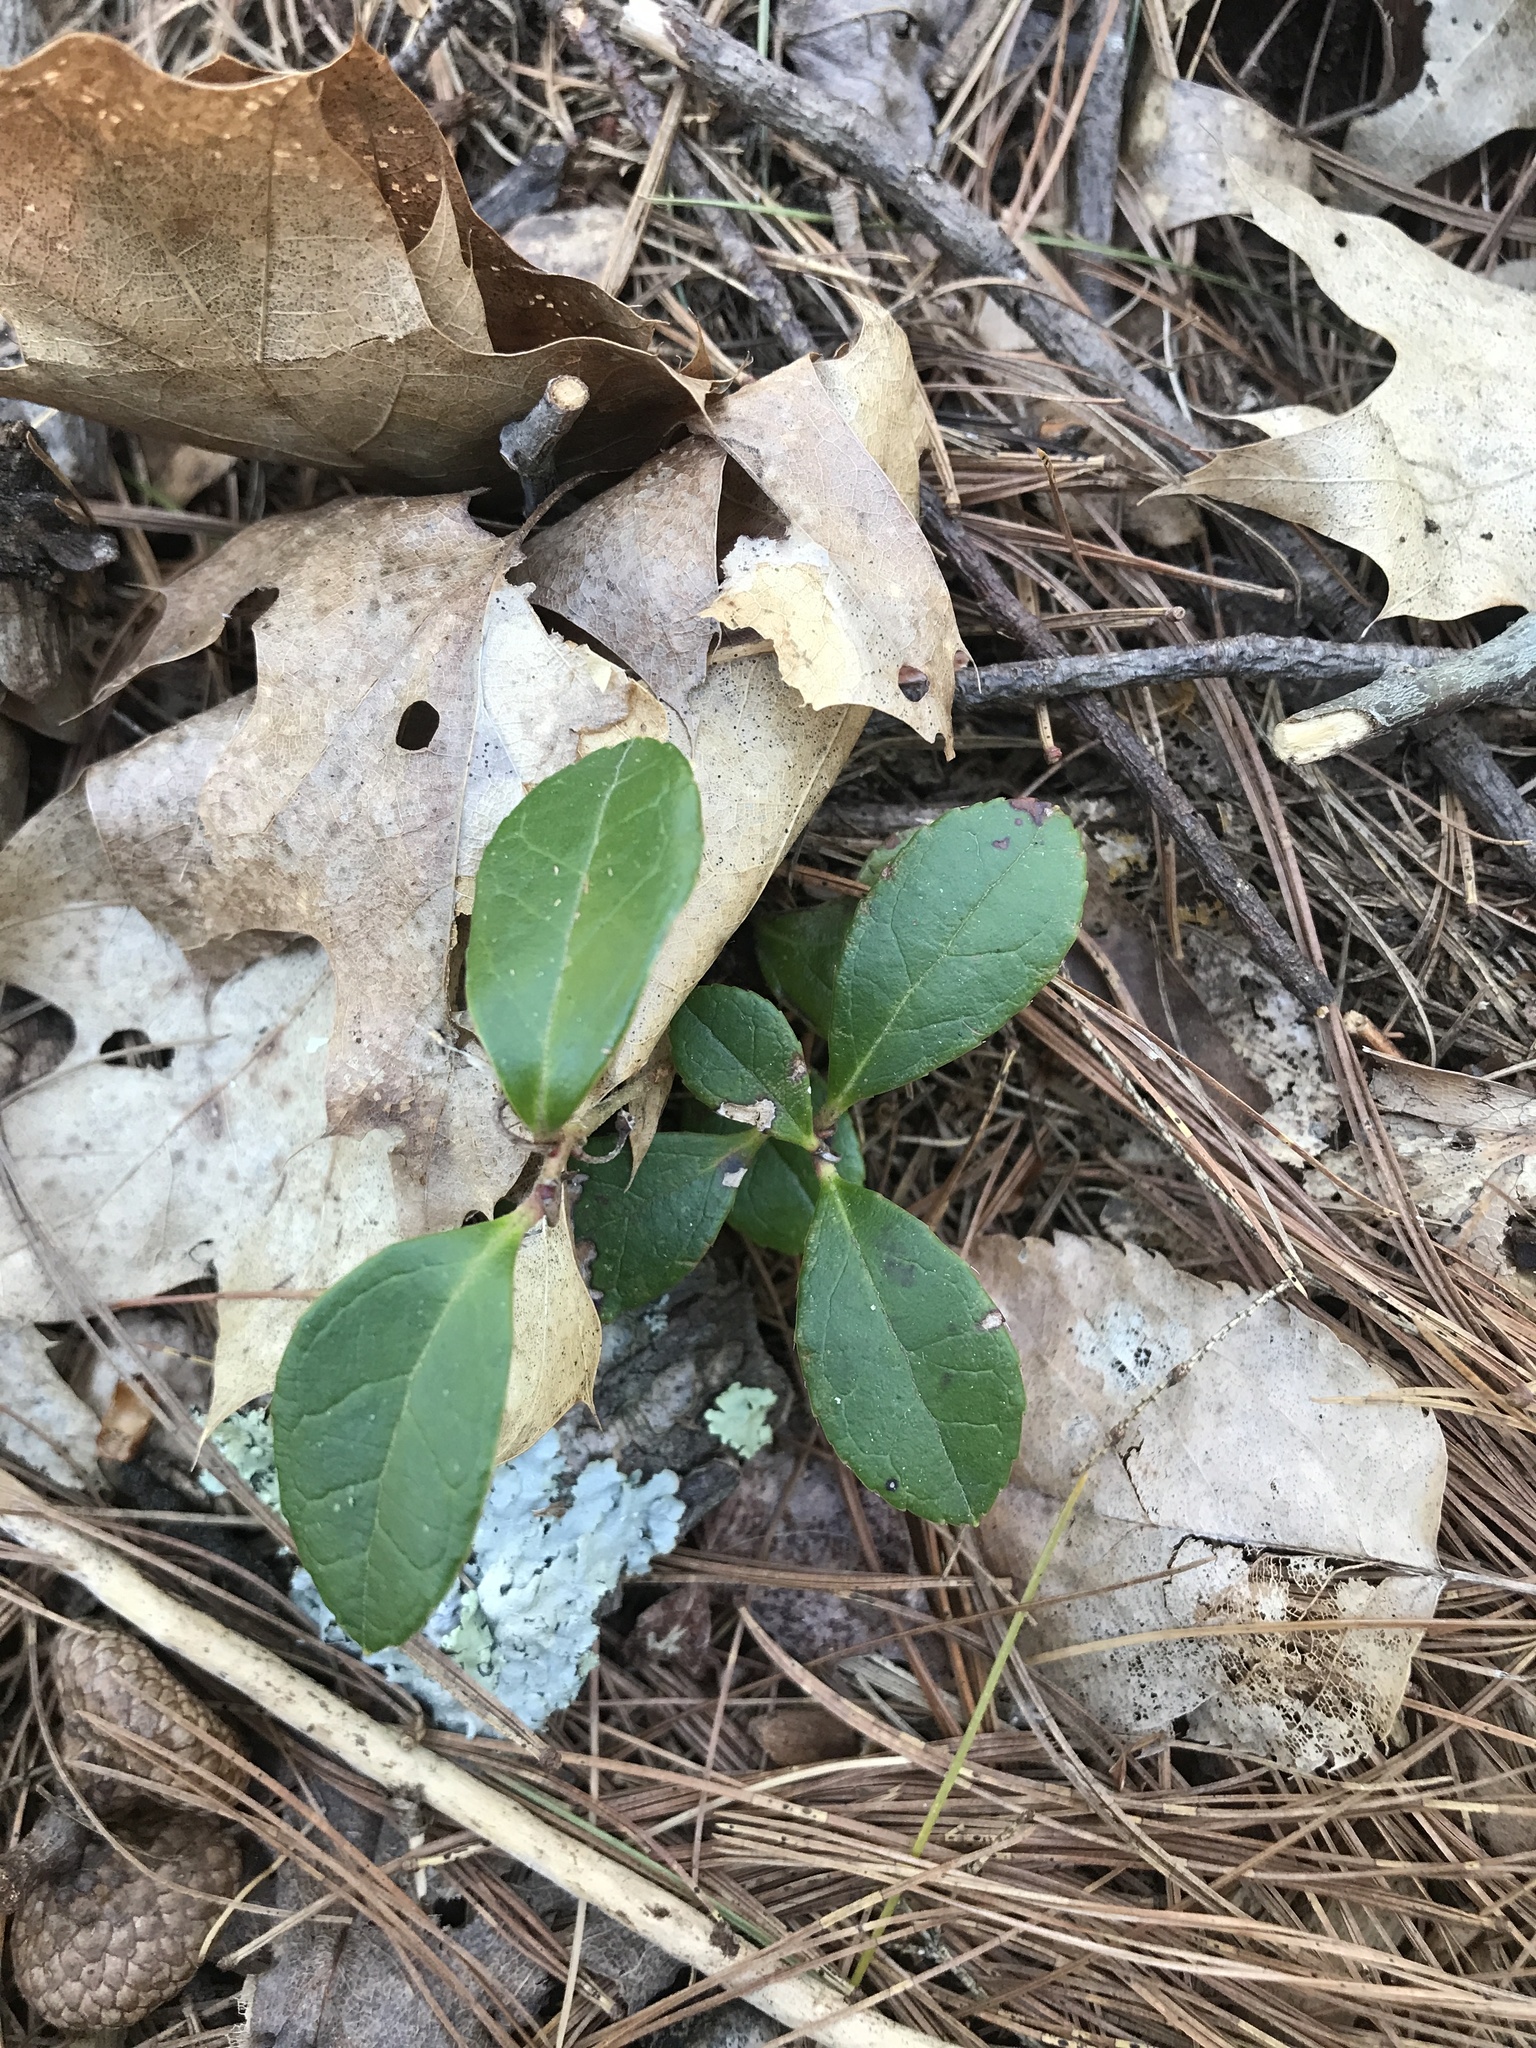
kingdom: Plantae
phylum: Tracheophyta
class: Magnoliopsida
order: Ericales
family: Ericaceae
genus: Gaultheria
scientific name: Gaultheria procumbens
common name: Checkerberry
